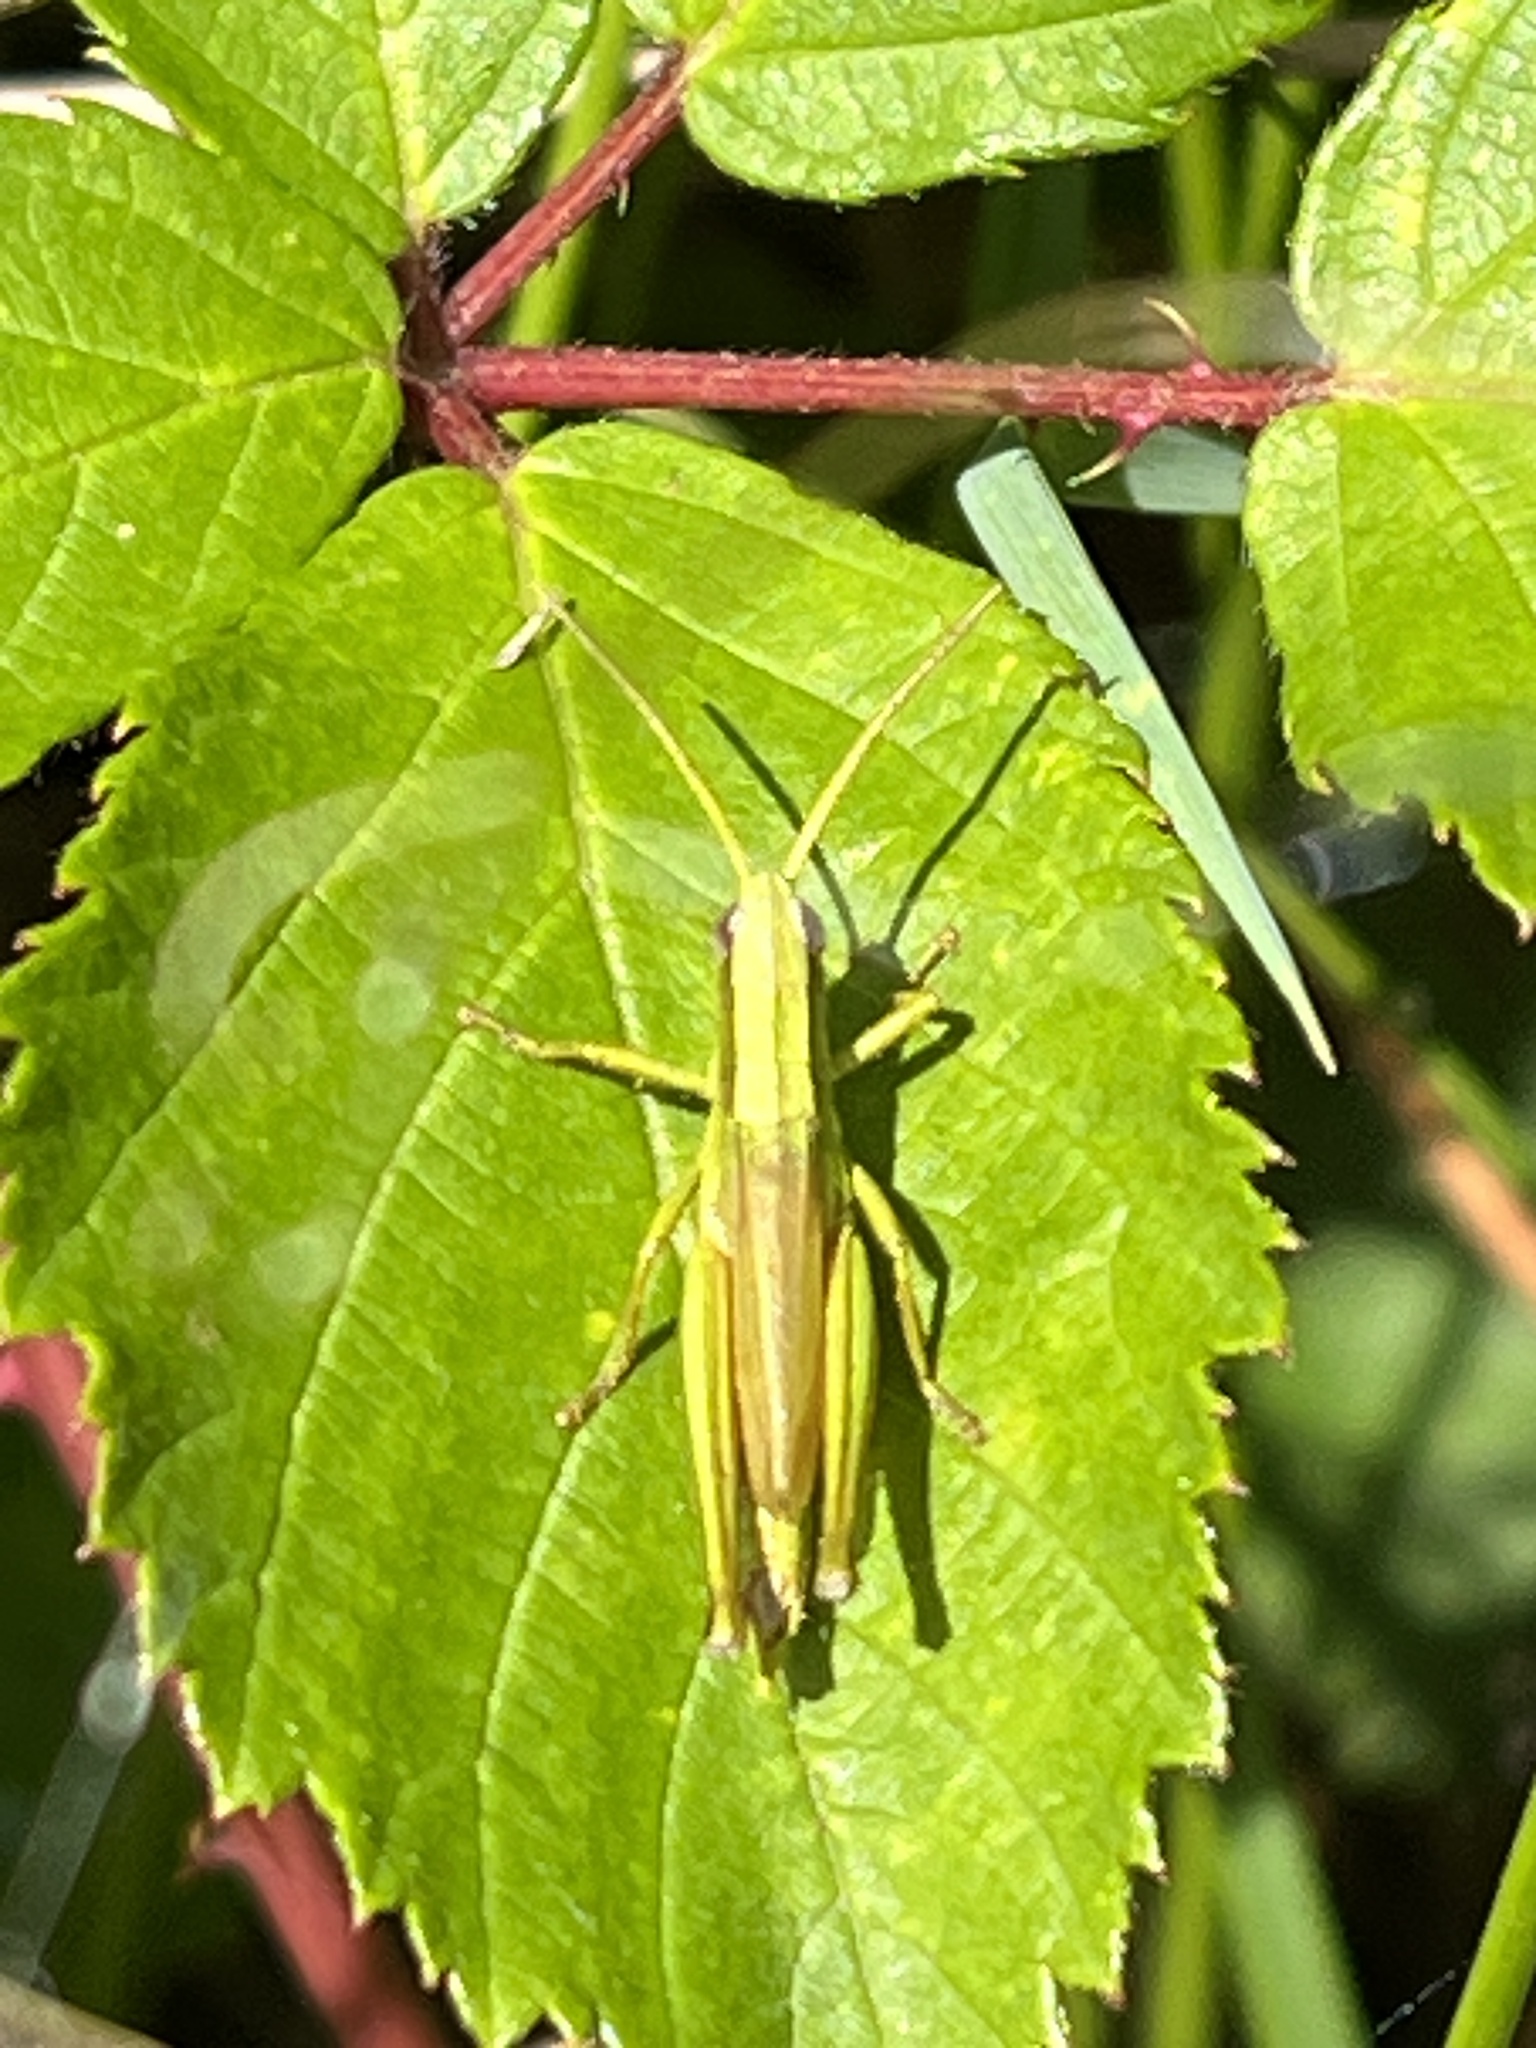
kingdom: Animalia
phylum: Arthropoda
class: Insecta
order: Orthoptera
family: Acrididae
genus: Chrysochraon
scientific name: Chrysochraon dispar
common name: Large gold grasshopper
